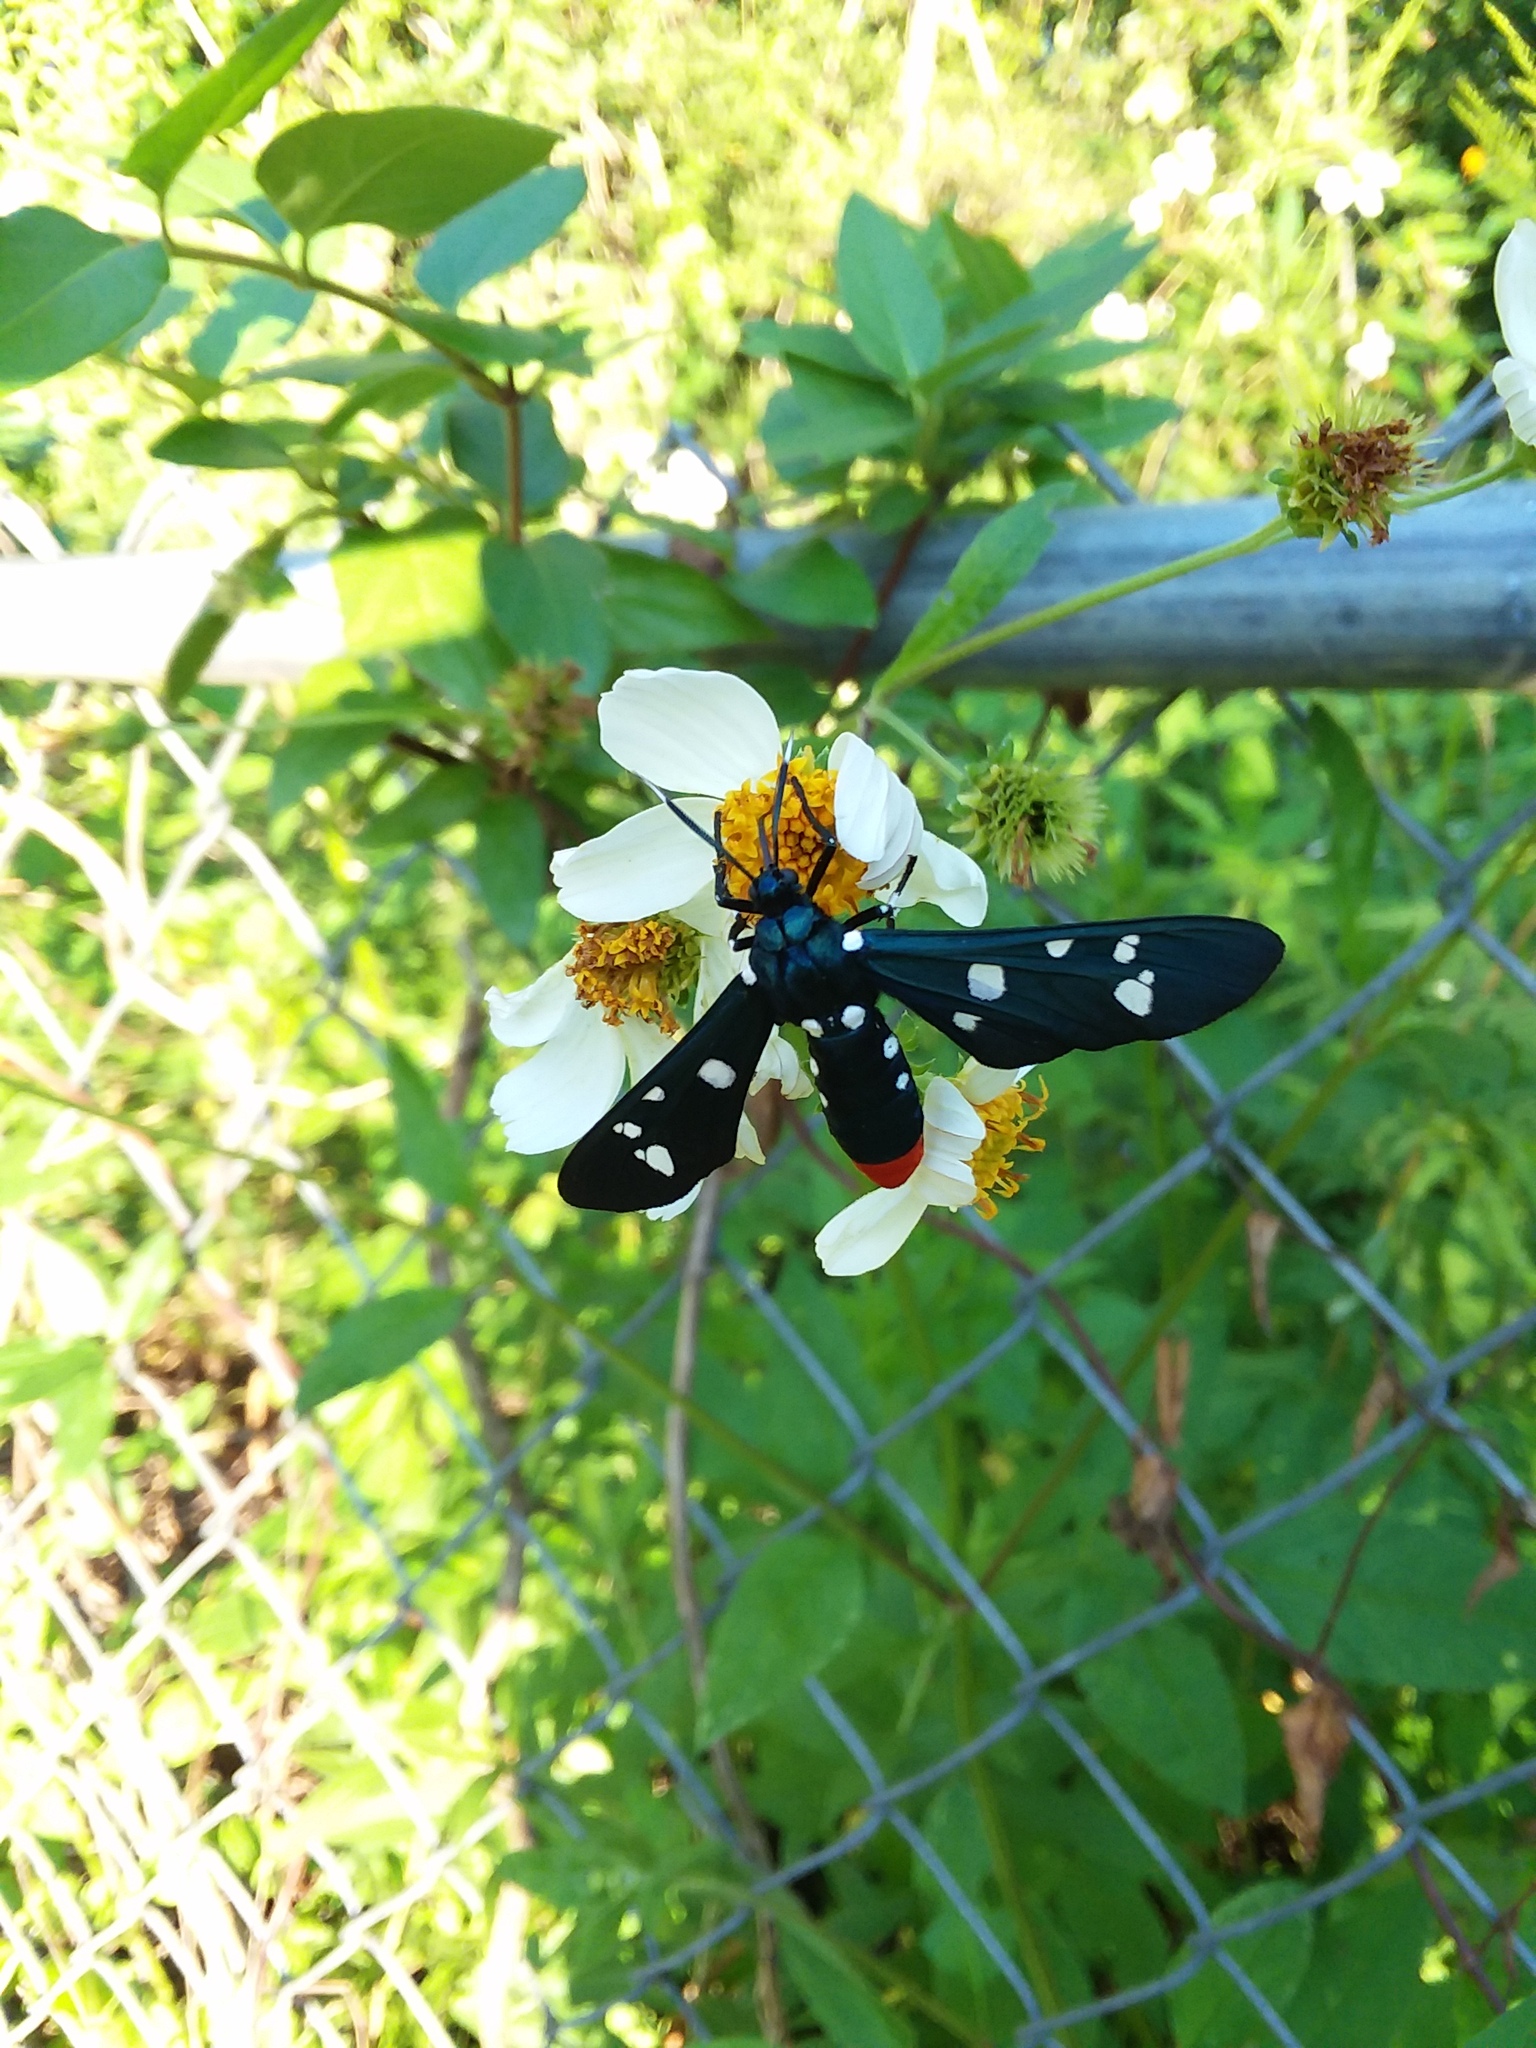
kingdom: Animalia
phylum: Arthropoda
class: Insecta
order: Lepidoptera
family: Erebidae
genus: Syntomeida
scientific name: Syntomeida epilais
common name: Polka-dot wasp moth
